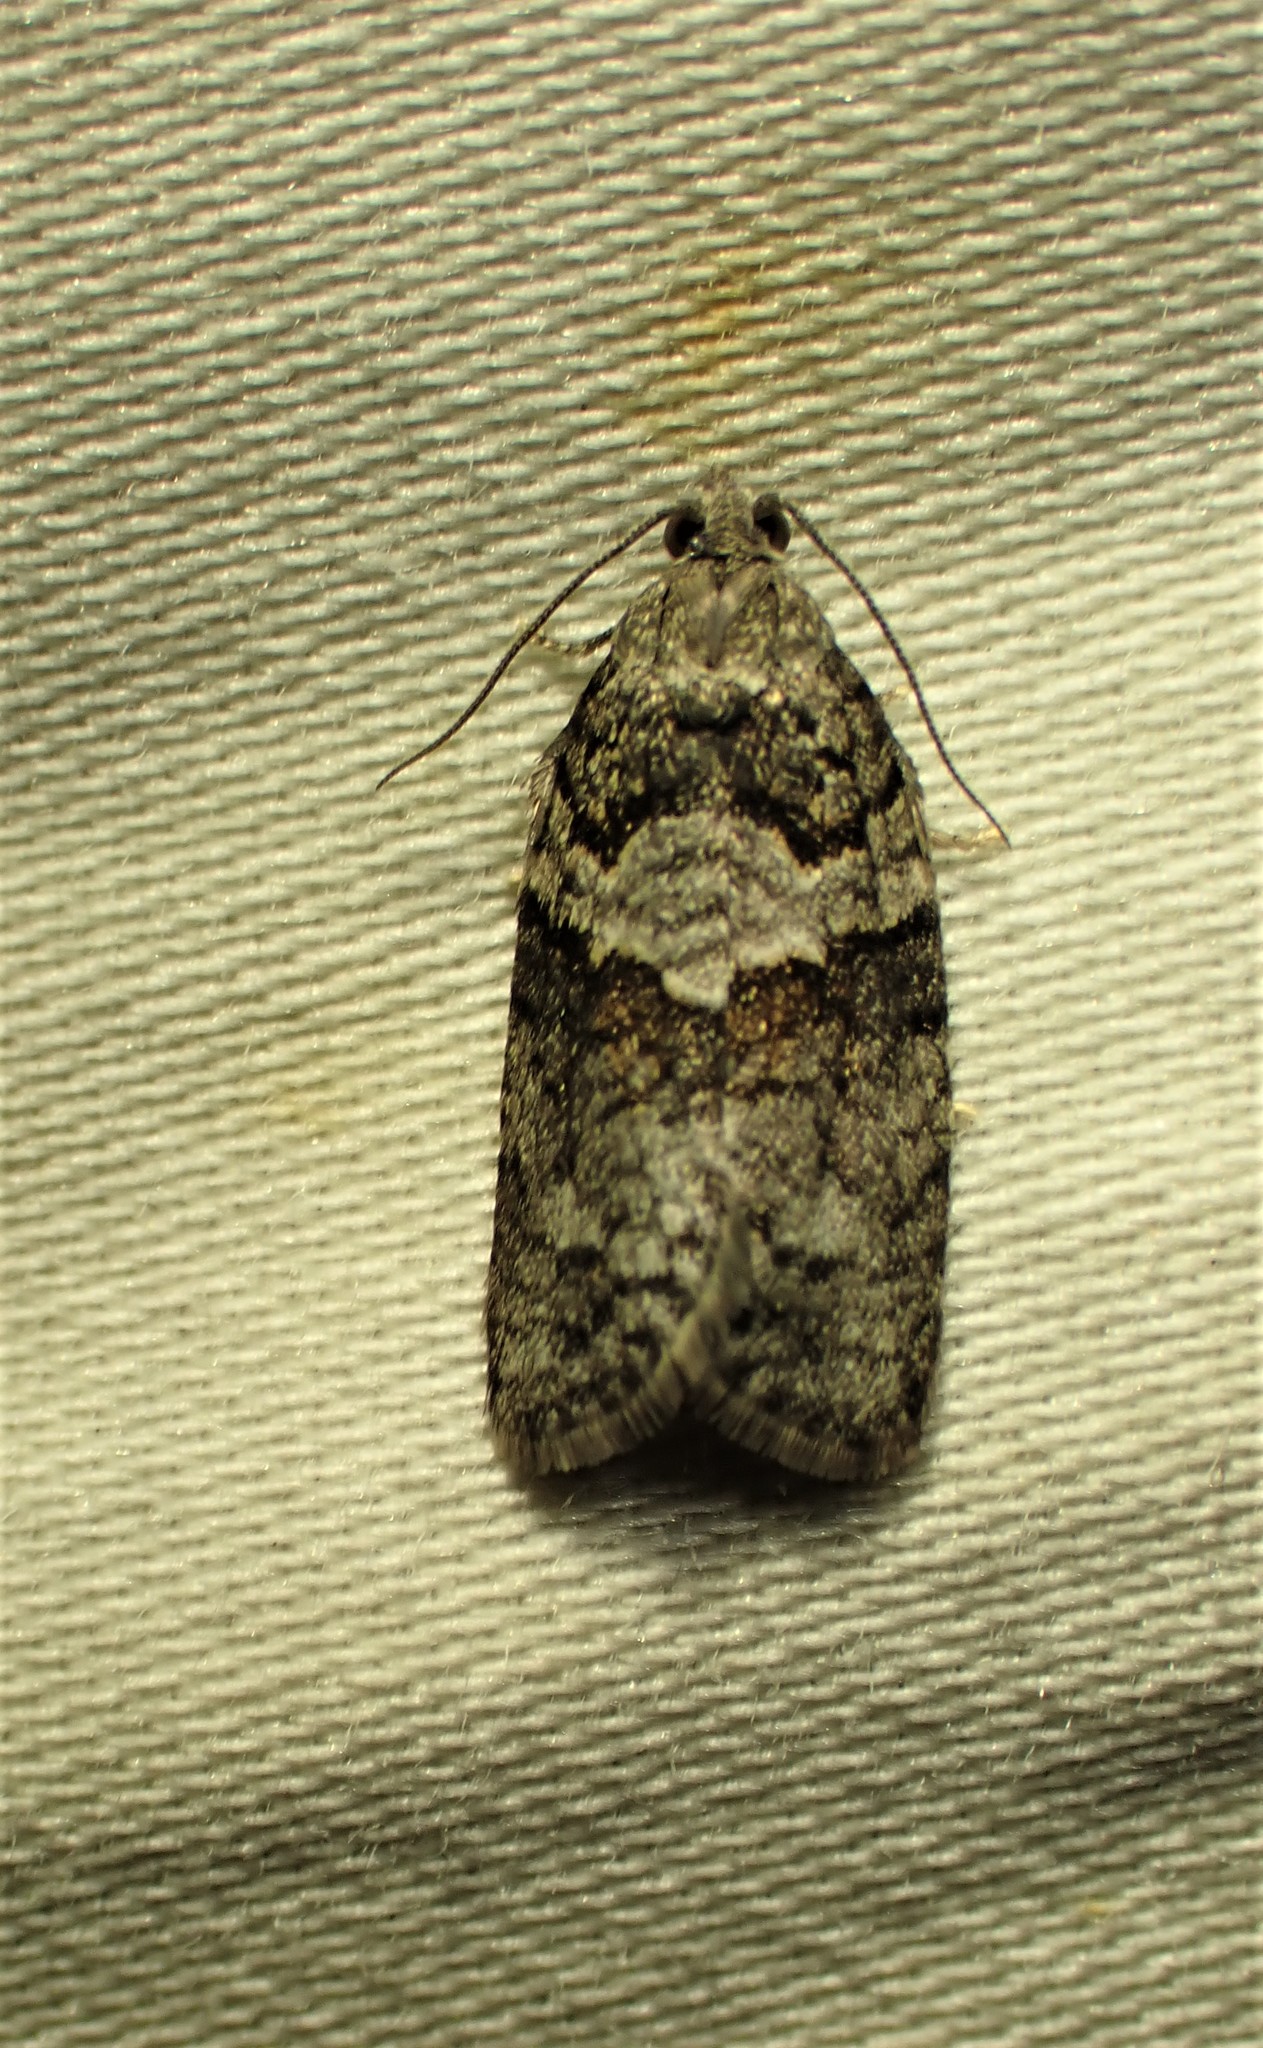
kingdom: Animalia
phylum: Arthropoda
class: Insecta
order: Lepidoptera
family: Tortricidae
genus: Syndemis
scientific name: Syndemis afflictana
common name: Gray leafroller moth
